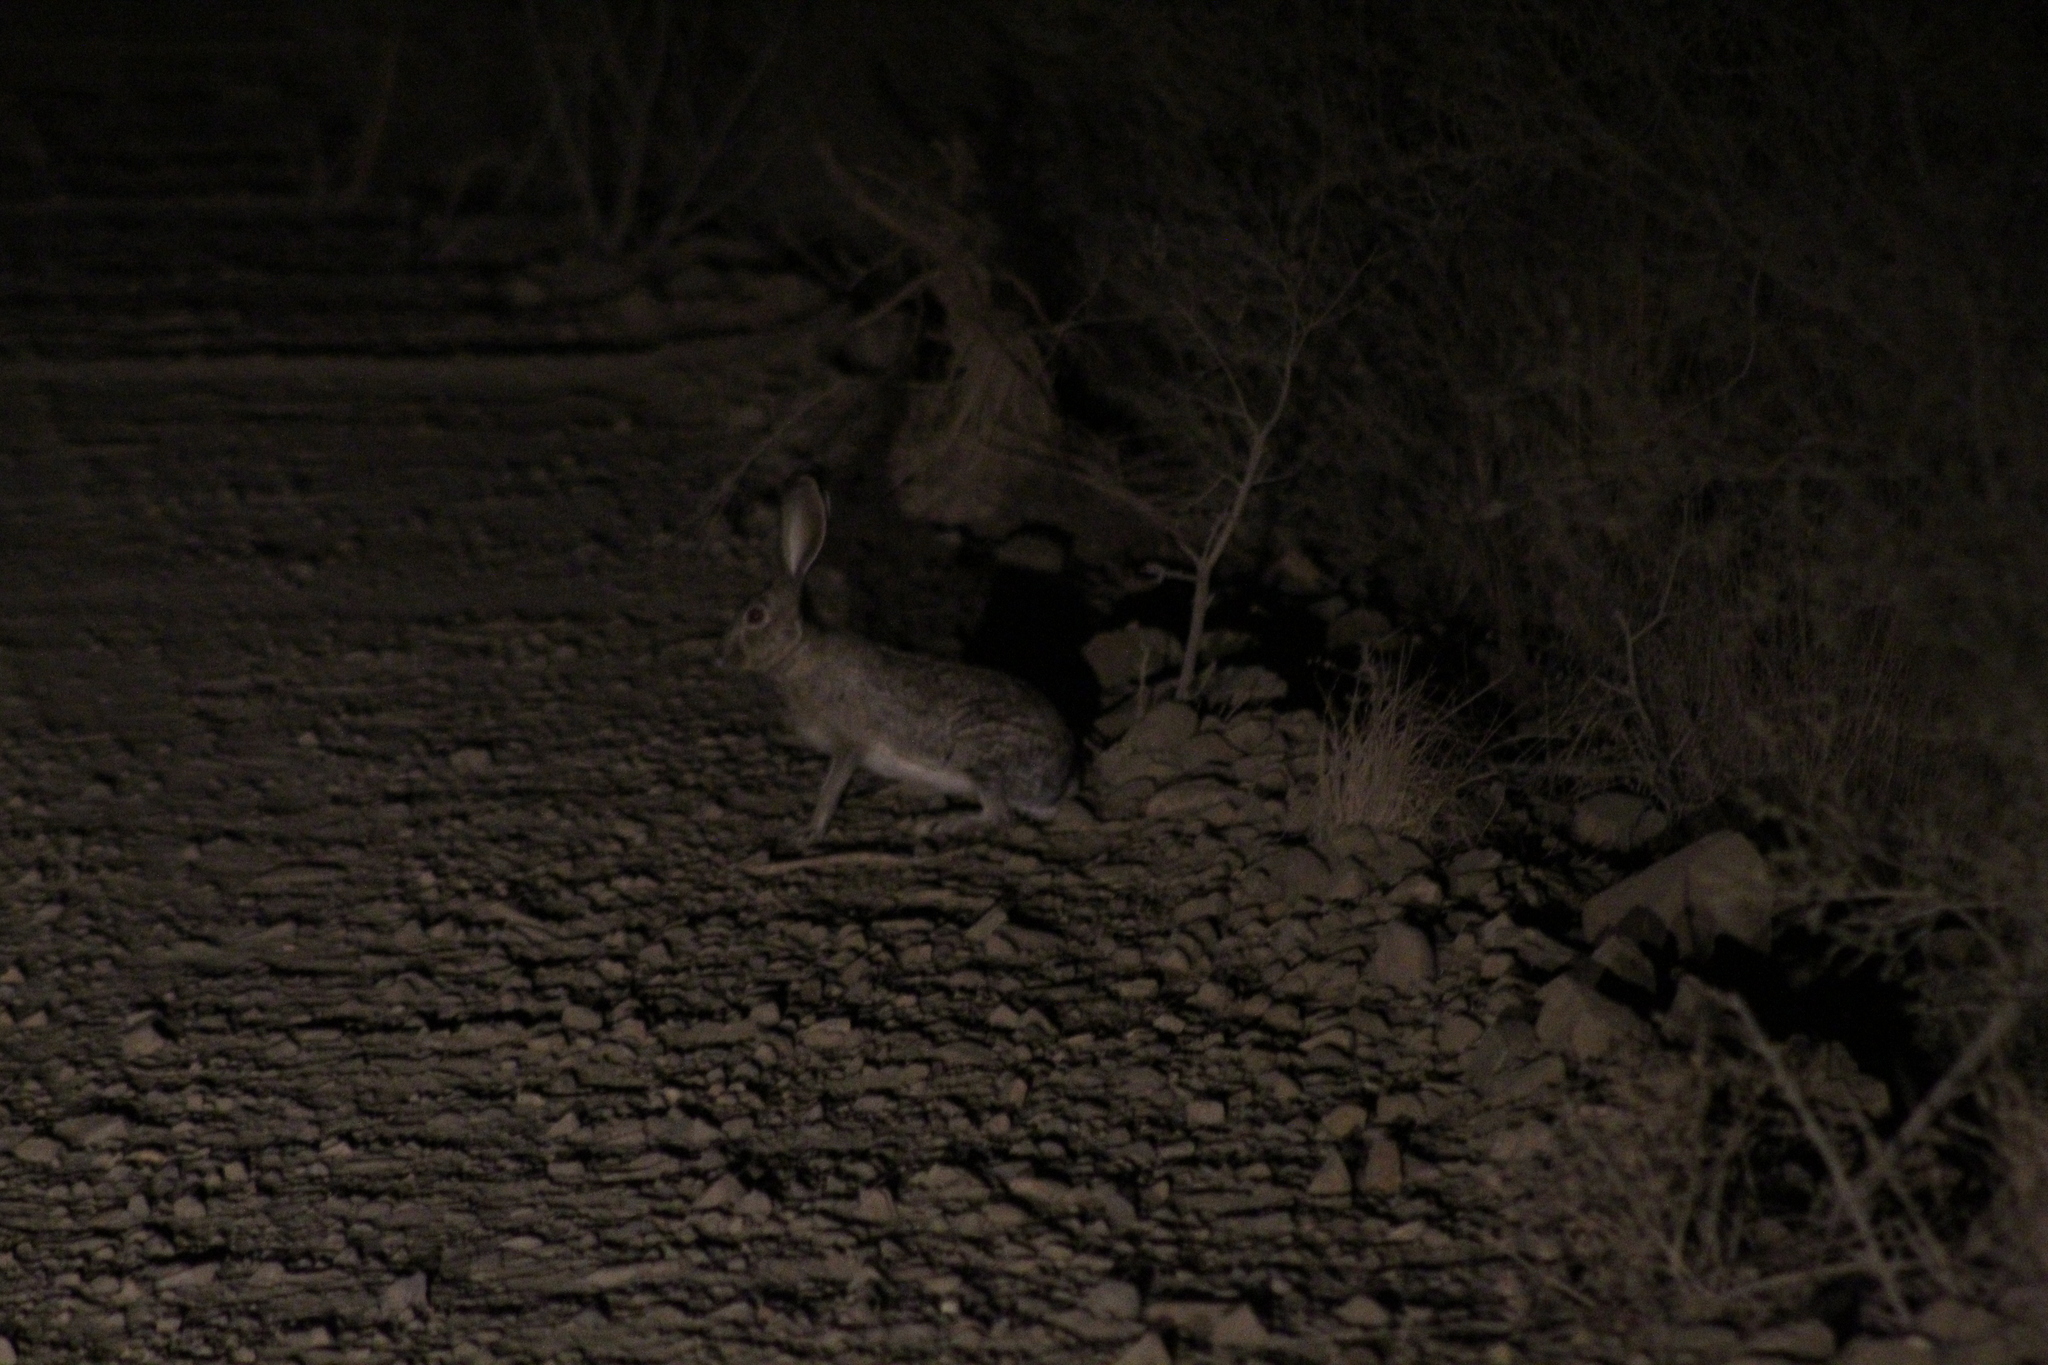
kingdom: Animalia
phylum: Chordata
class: Mammalia
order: Lagomorpha
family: Leporidae
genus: Lepus
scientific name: Lepus californicus
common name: Black-tailed jackrabbit
